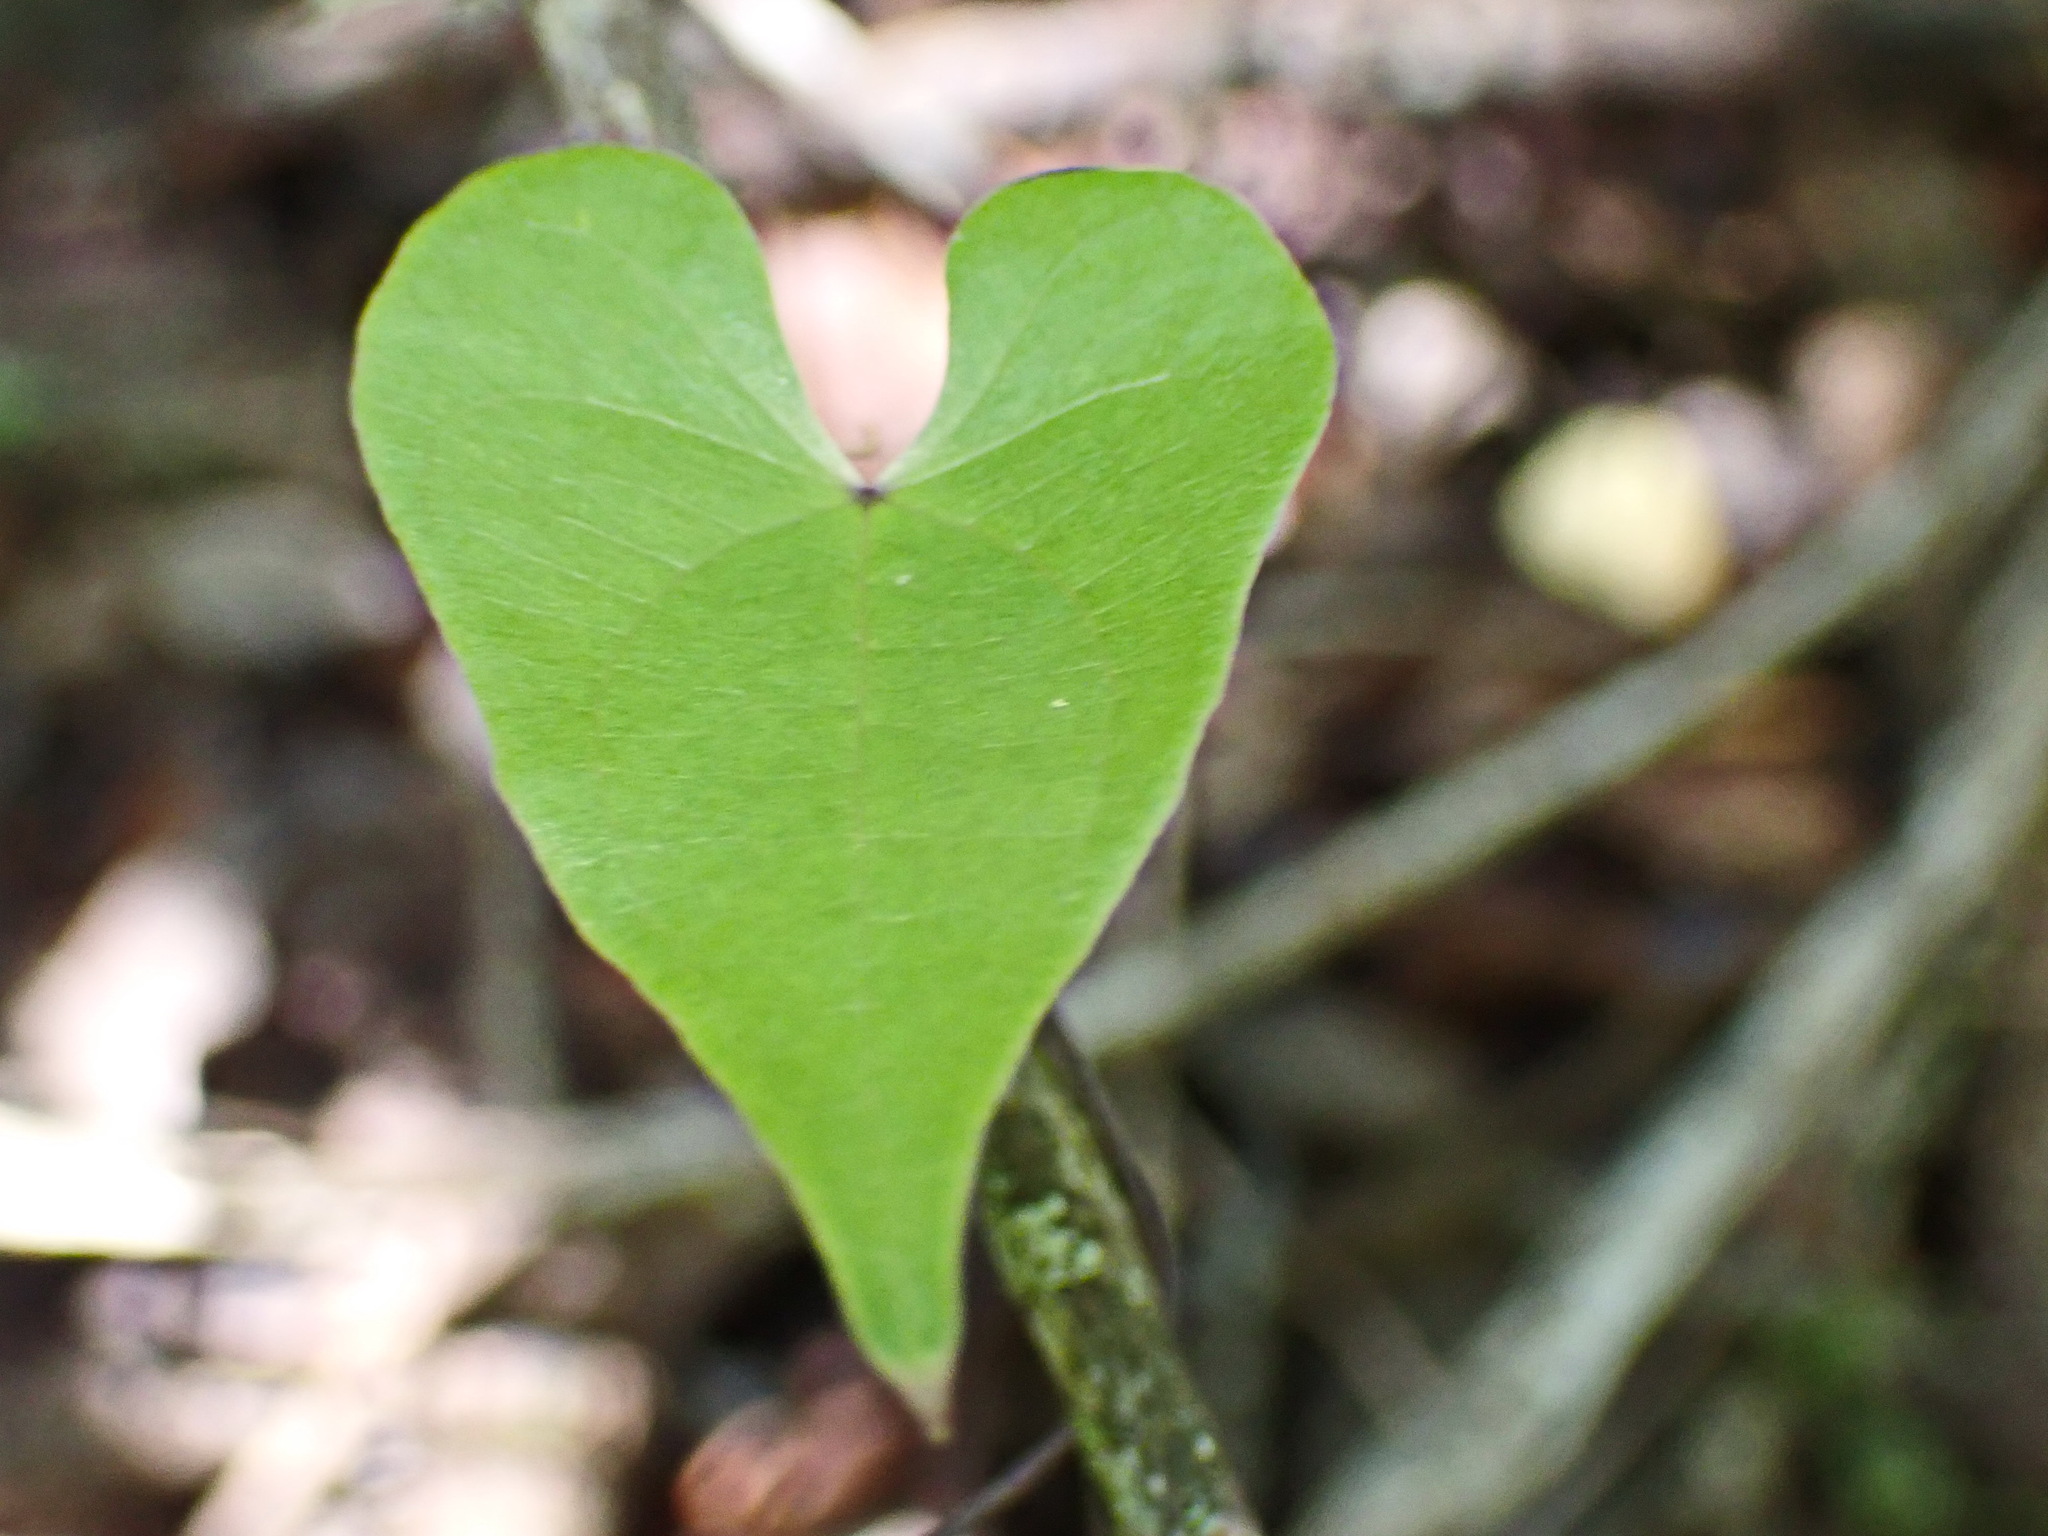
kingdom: Plantae
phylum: Tracheophyta
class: Liliopsida
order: Dioscoreales
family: Dioscoreaceae
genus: Dioscorea
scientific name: Dioscorea sylvatica
